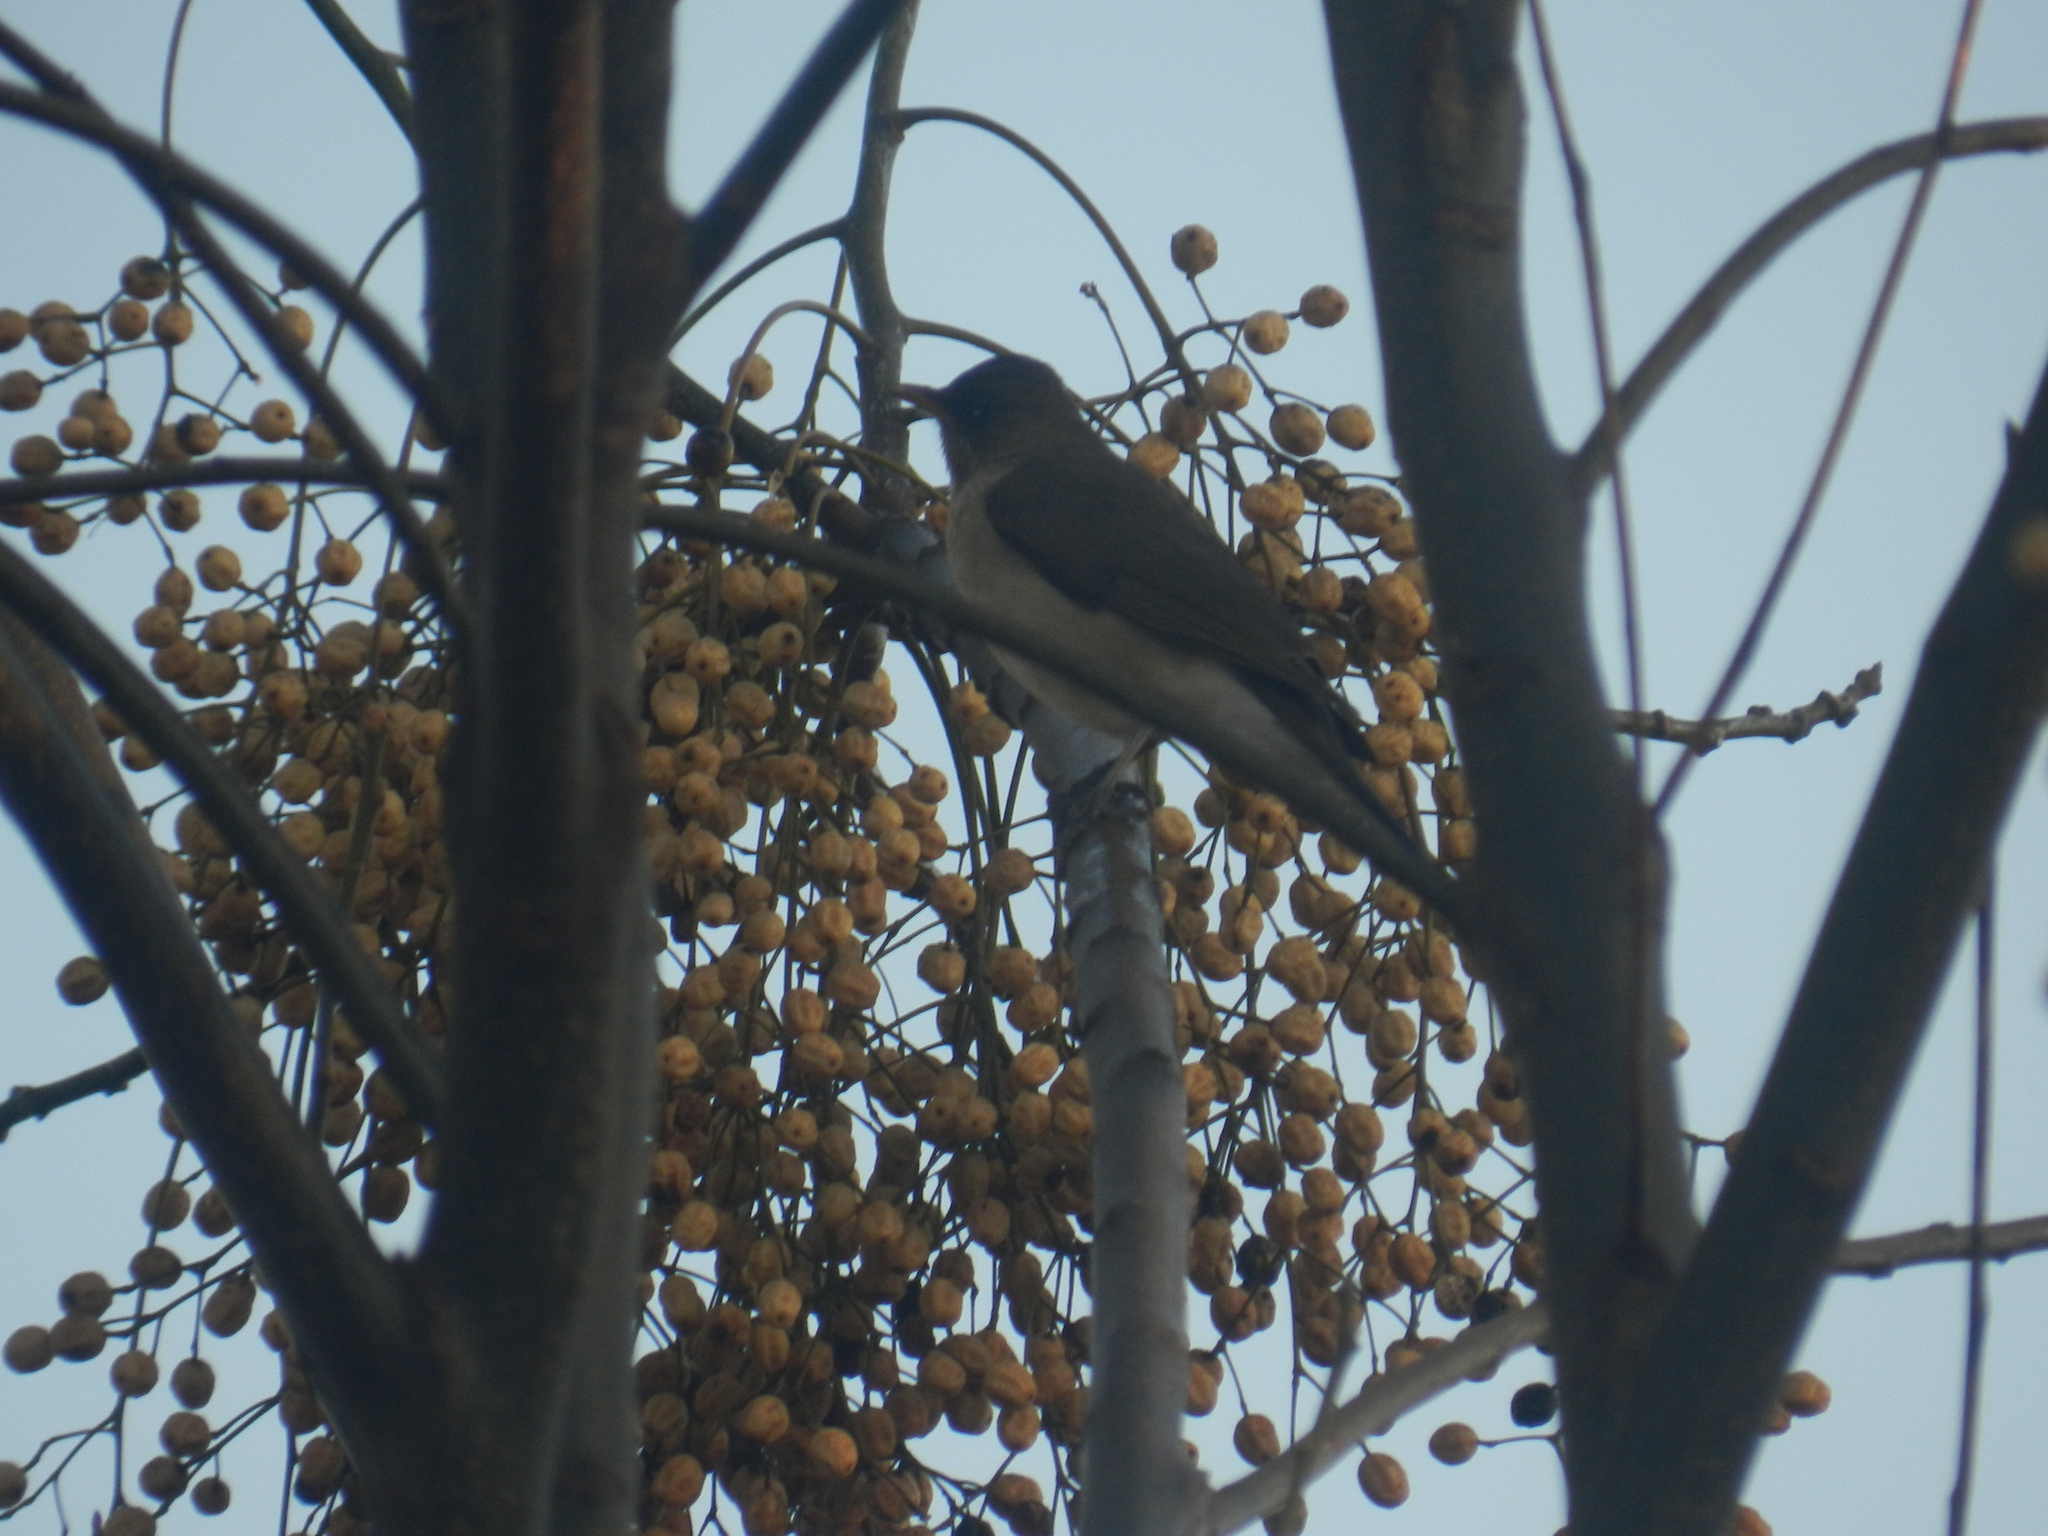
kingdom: Animalia
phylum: Chordata
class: Aves
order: Passeriformes
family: Turdidae
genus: Turdus
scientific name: Turdus amaurochalinus
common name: Creamy-bellied thrush
